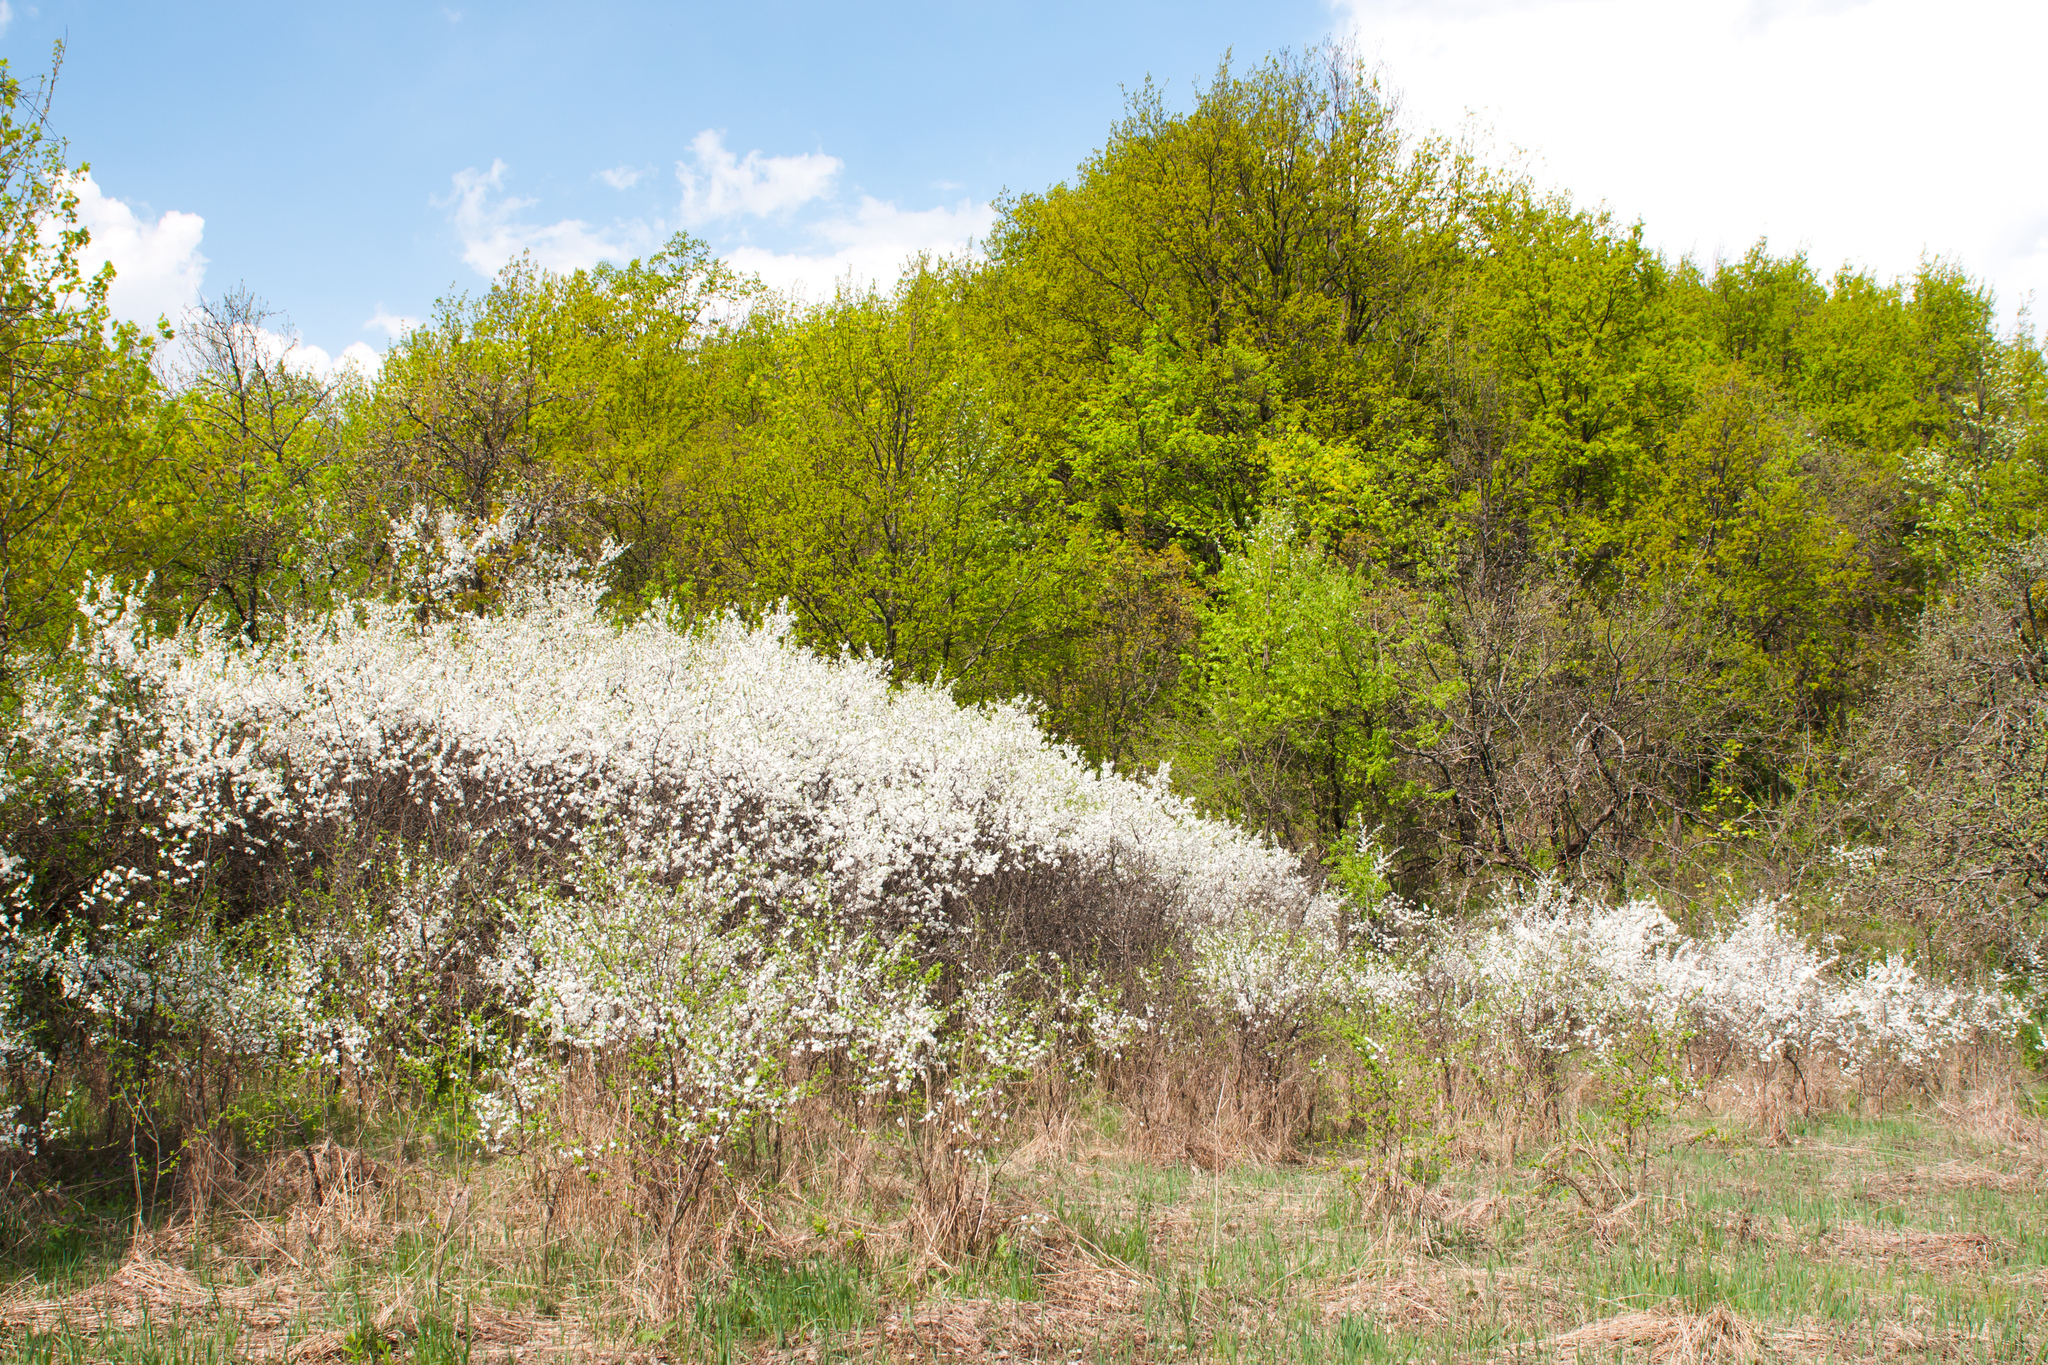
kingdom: Plantae
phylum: Tracheophyta
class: Magnoliopsida
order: Rosales
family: Rosaceae
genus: Prunus
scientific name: Prunus spinosa
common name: Blackthorn
